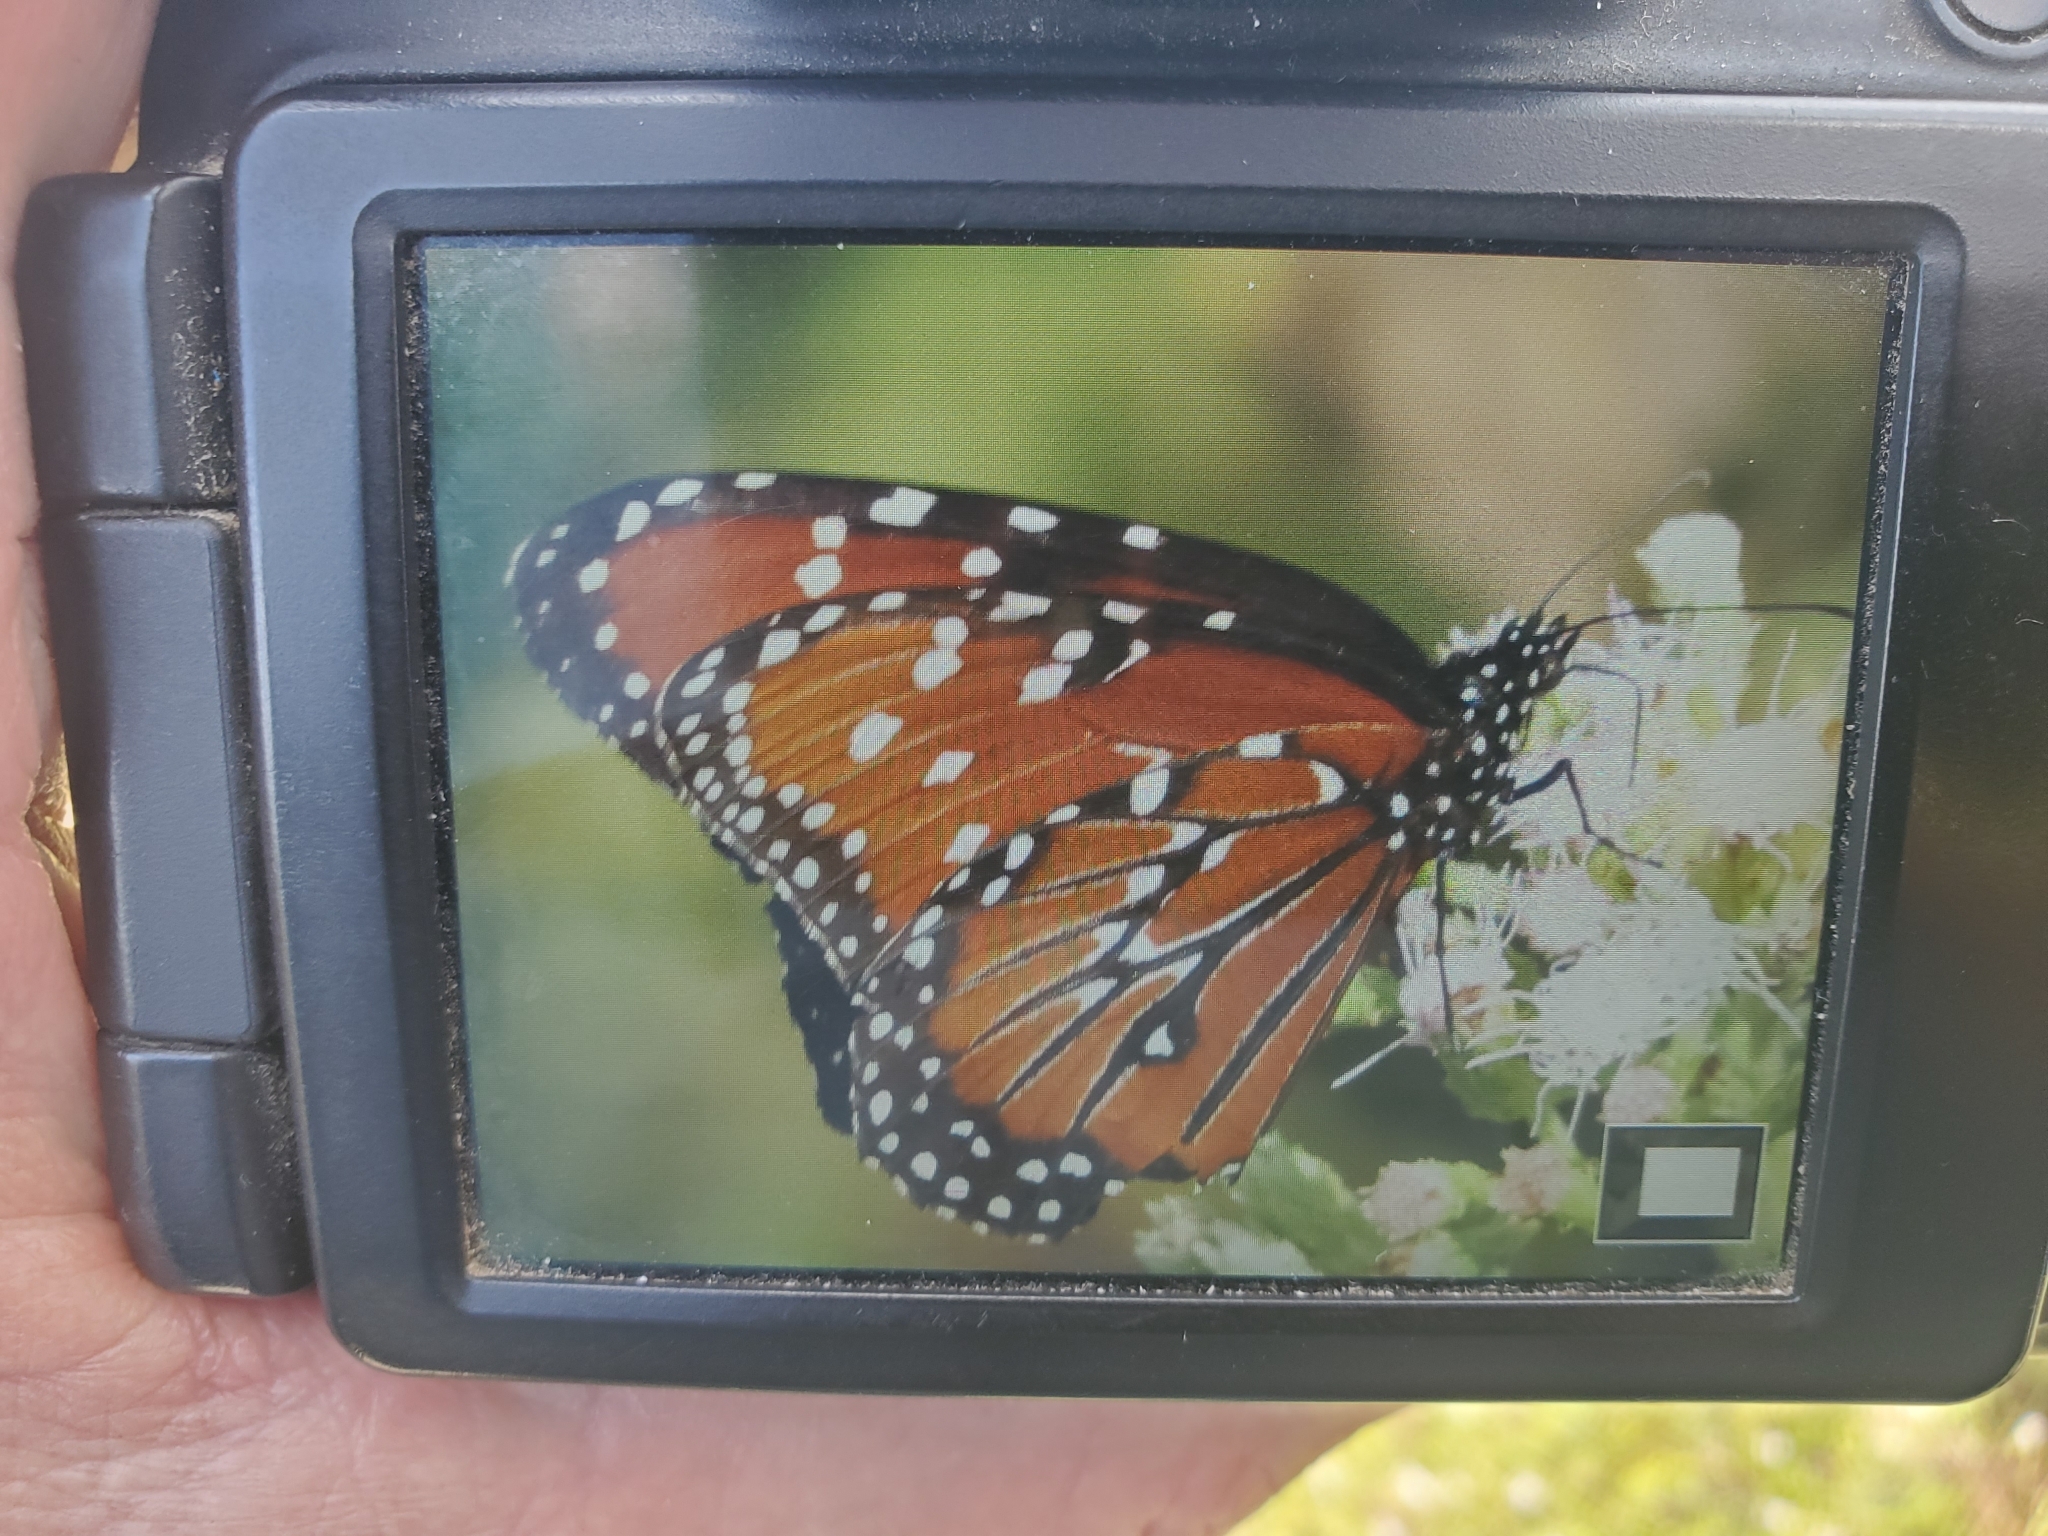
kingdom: Animalia
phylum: Arthropoda
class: Insecta
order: Lepidoptera
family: Nymphalidae
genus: Danaus
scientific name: Danaus gilippus
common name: Queen
